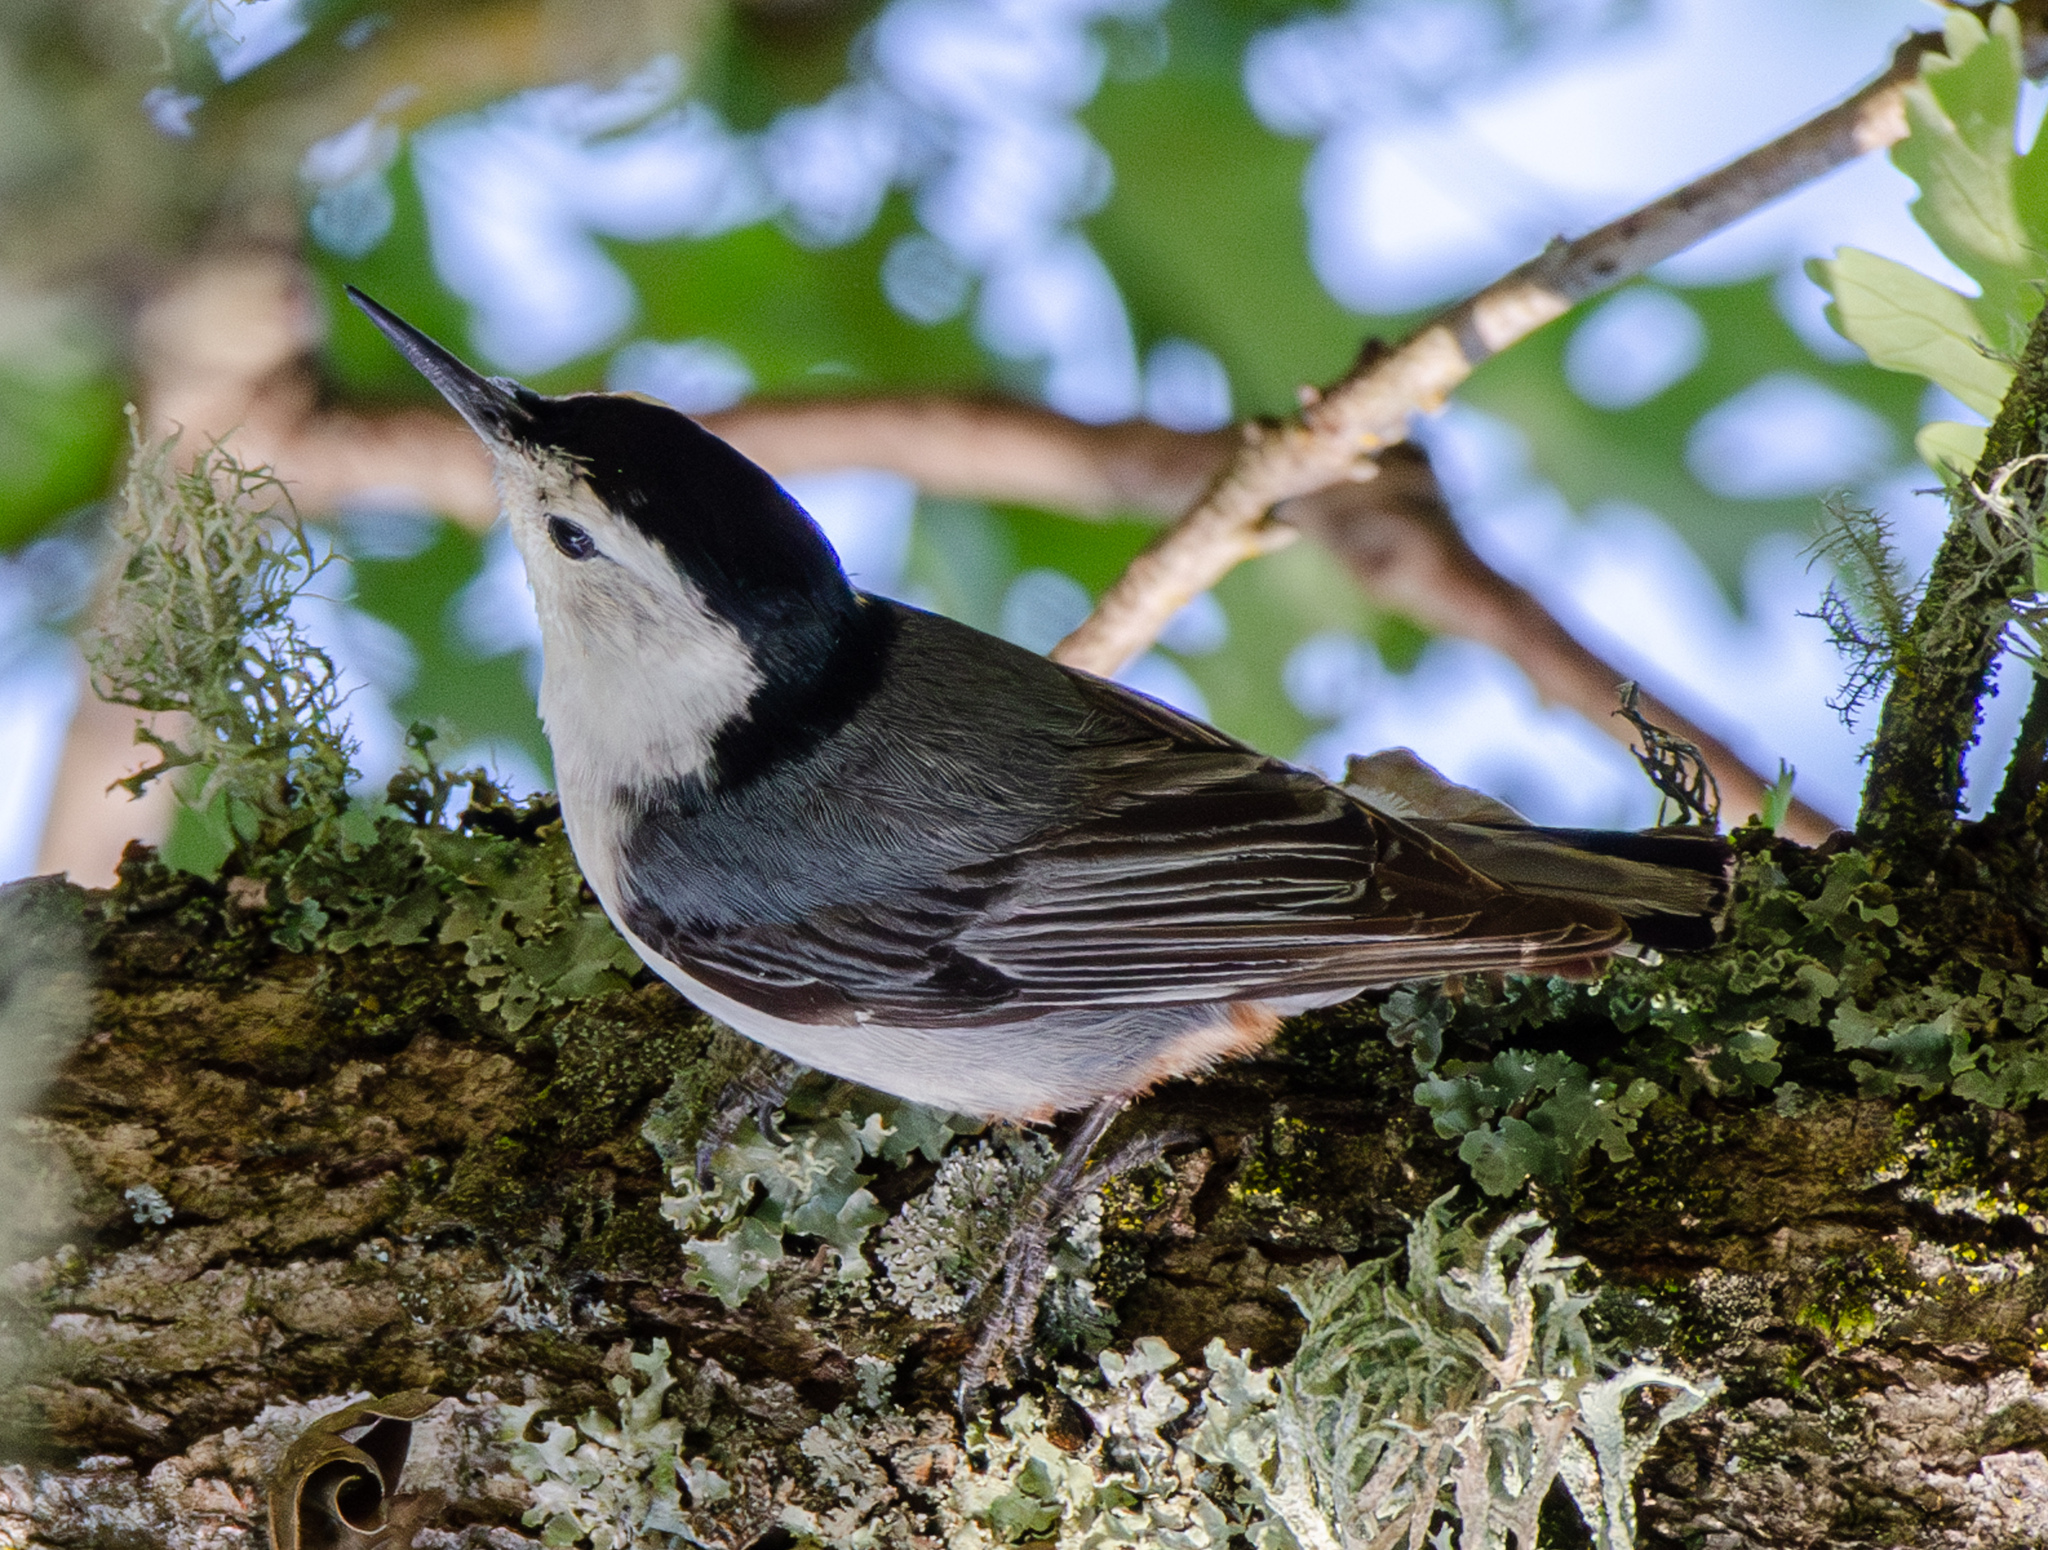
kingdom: Animalia
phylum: Chordata
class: Aves
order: Passeriformes
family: Sittidae
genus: Sitta
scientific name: Sitta carolinensis
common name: White-breasted nuthatch
